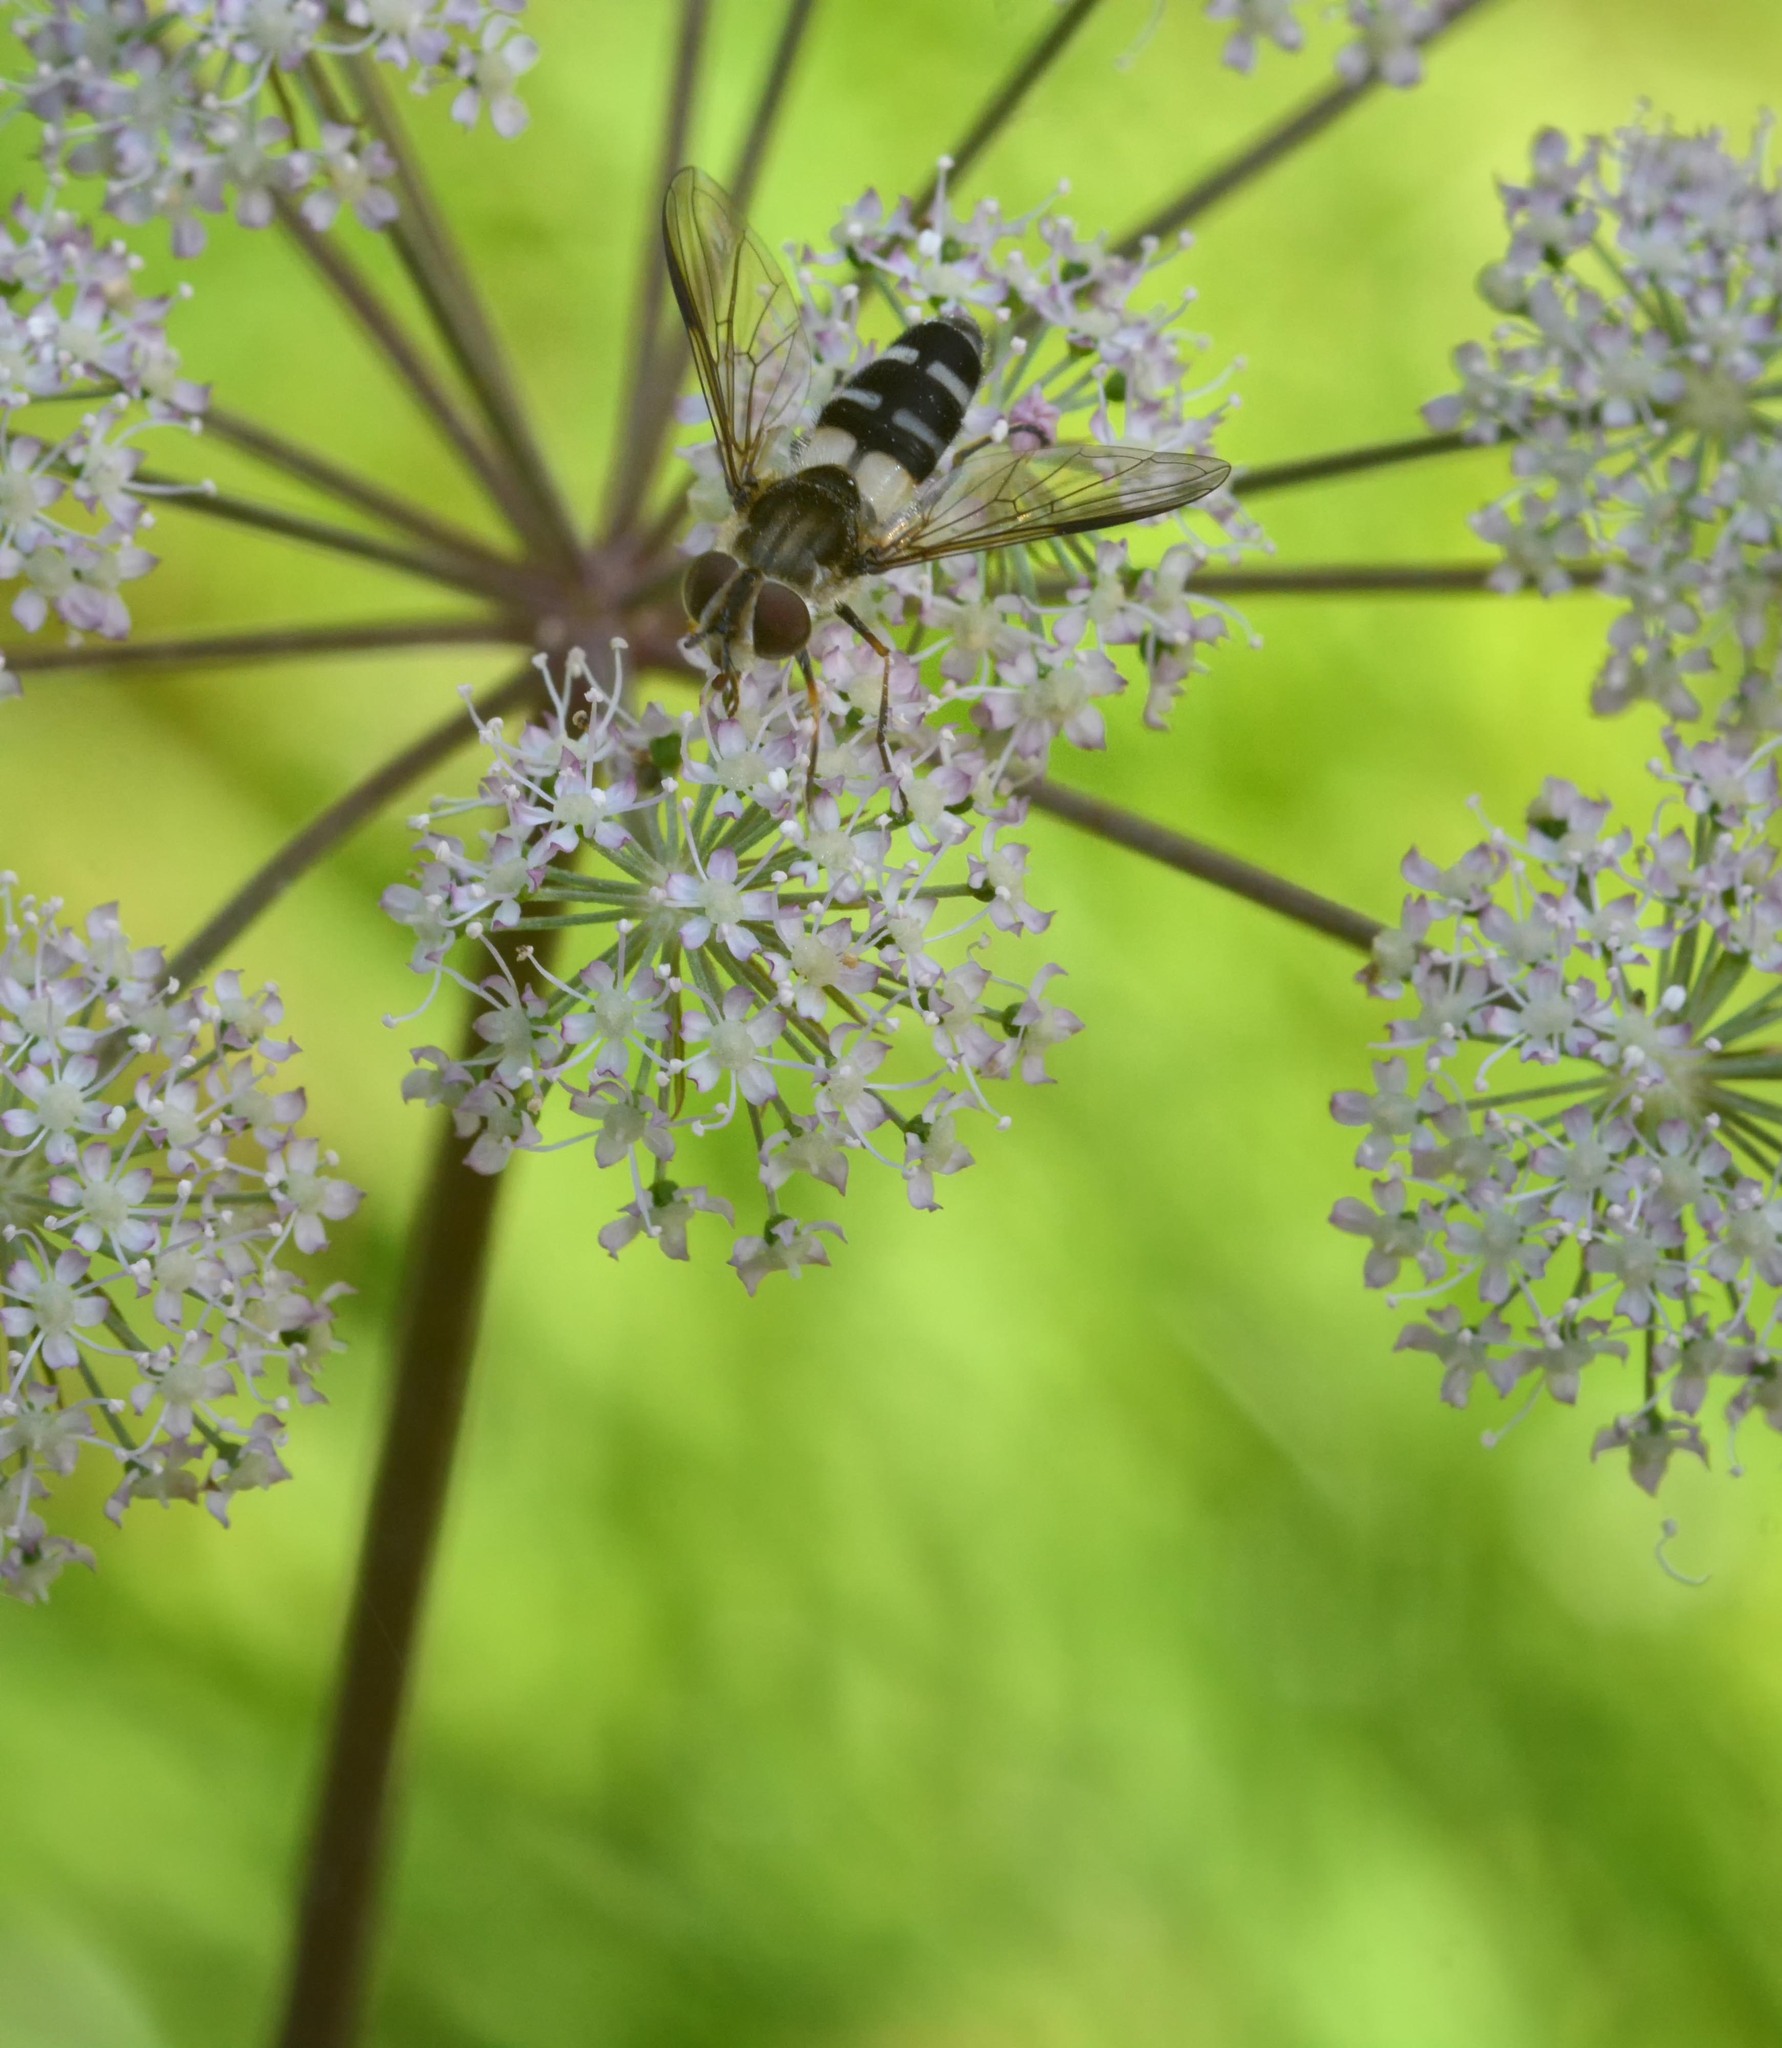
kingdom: Animalia
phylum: Arthropoda
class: Insecta
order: Diptera
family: Syrphidae
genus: Leucozona
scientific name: Leucozona laternaria
